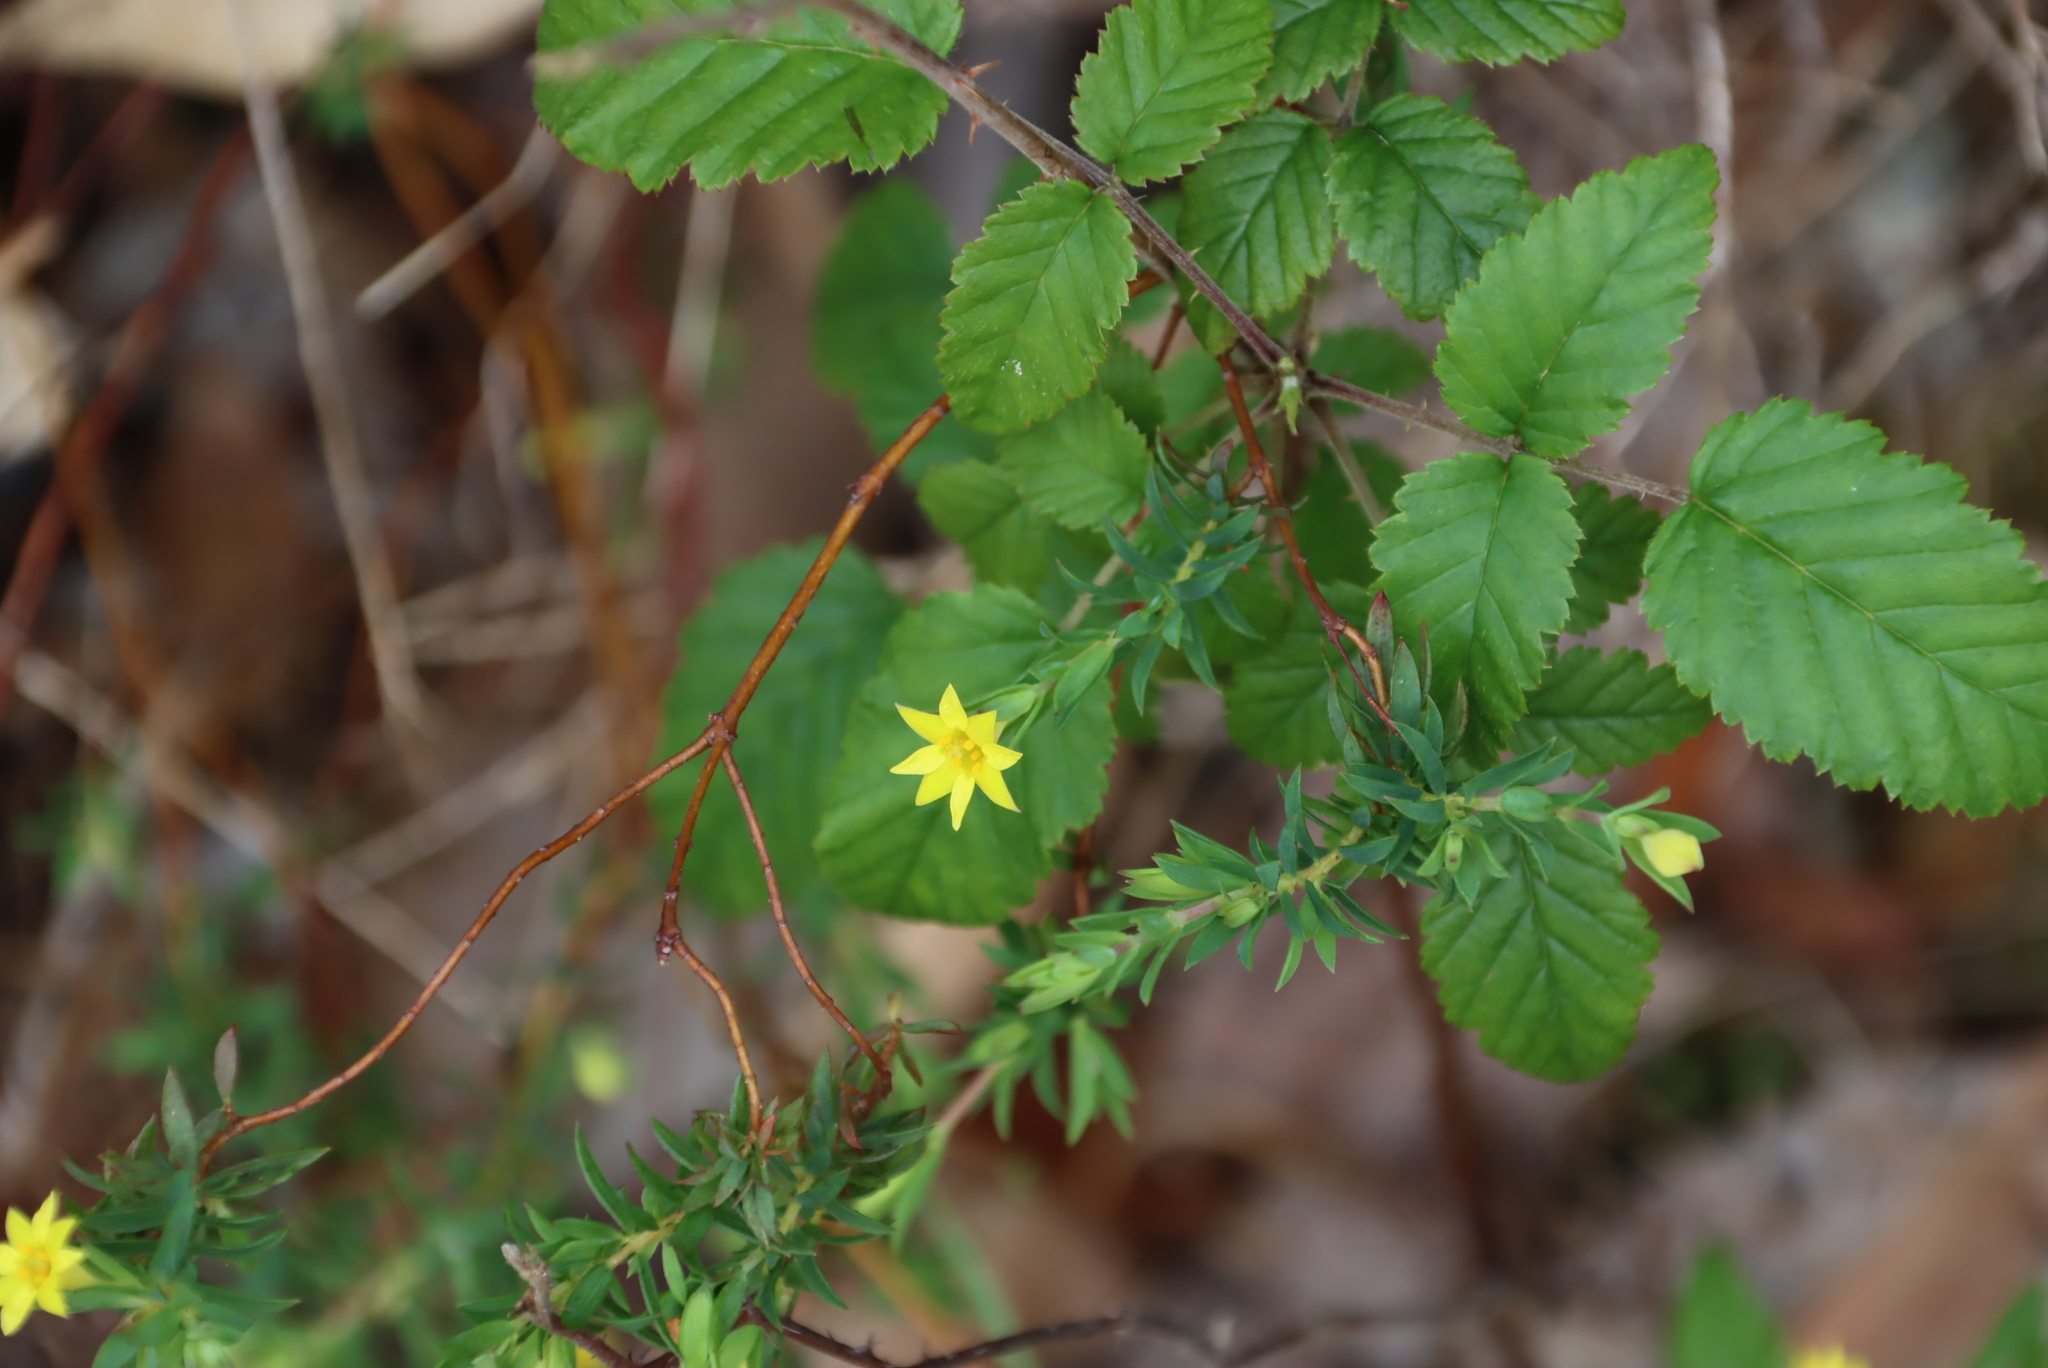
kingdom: Plantae
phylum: Tracheophyta
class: Magnoliopsida
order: Malvales
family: Thymelaeaceae
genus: Gnidia
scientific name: Gnidia juniperifolia
